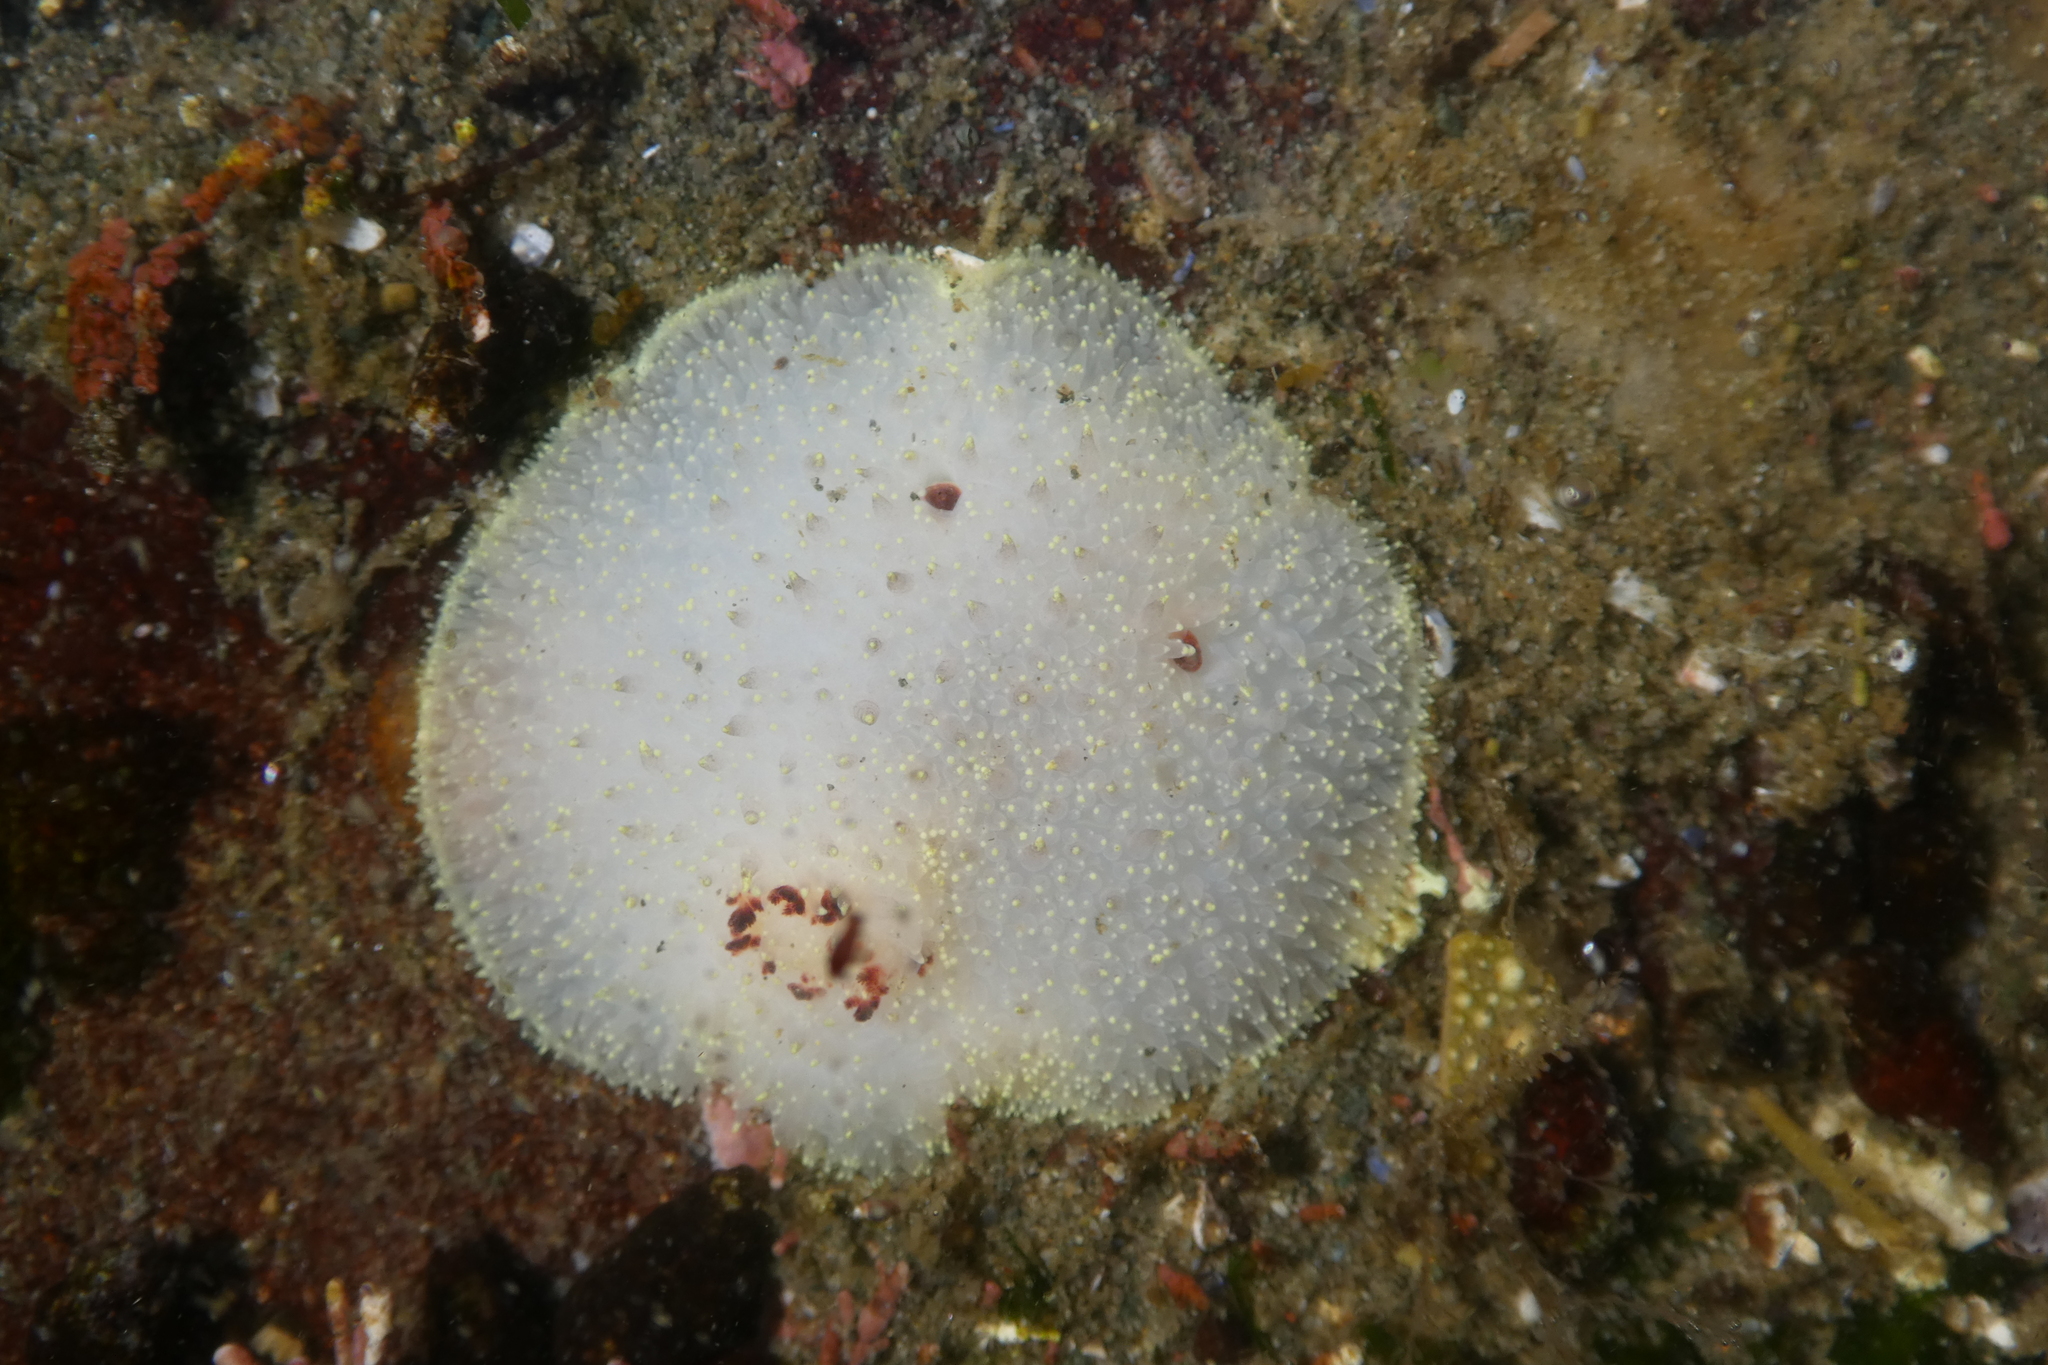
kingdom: Animalia
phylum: Mollusca
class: Gastropoda
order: Nudibranchia
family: Onchidorididae
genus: Acanthodoris
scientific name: Acanthodoris nanaimoensis
